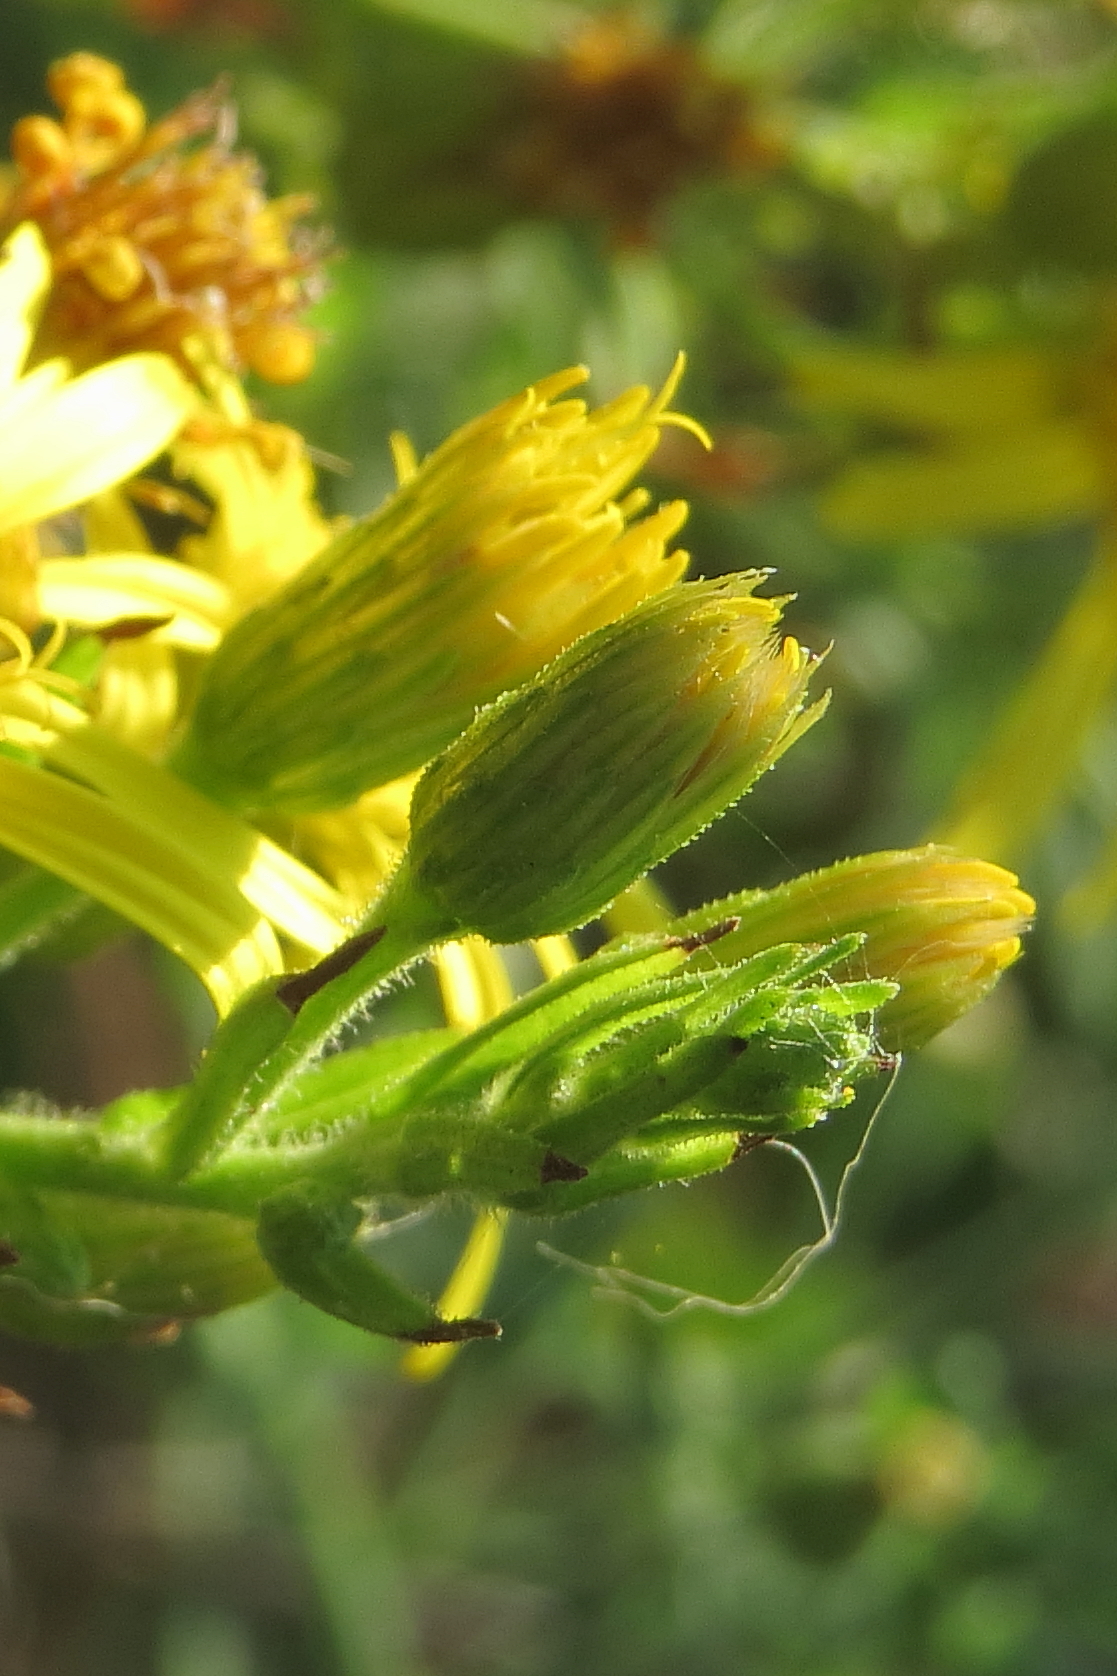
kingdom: Plantae
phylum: Tracheophyta
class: Magnoliopsida
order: Asterales
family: Asteraceae
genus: Dittrichia
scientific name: Dittrichia viscosa
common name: Woody fleabane
